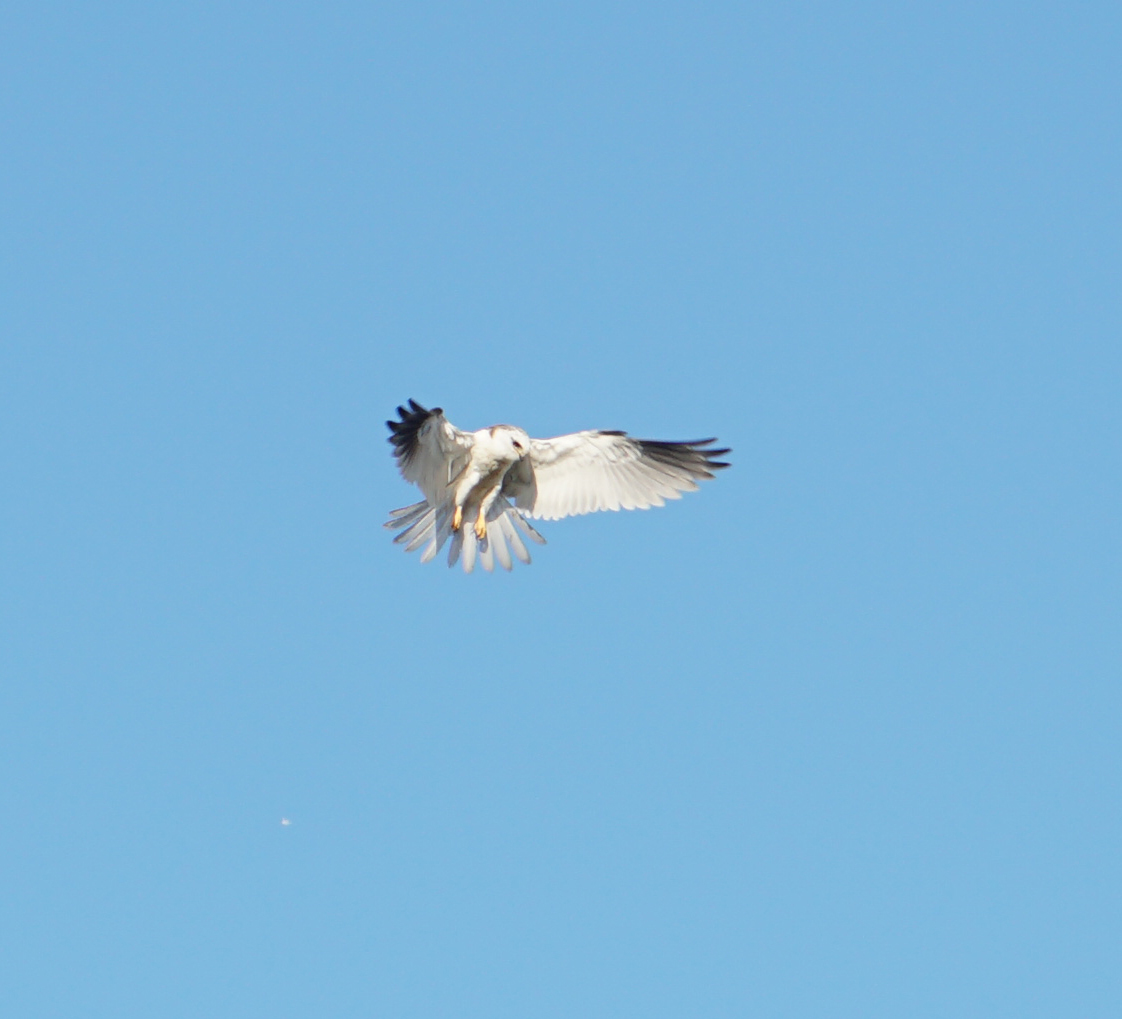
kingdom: Animalia
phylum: Chordata
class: Aves
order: Accipitriformes
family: Accipitridae
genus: Elanus
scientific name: Elanus leucurus
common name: White-tailed kite
